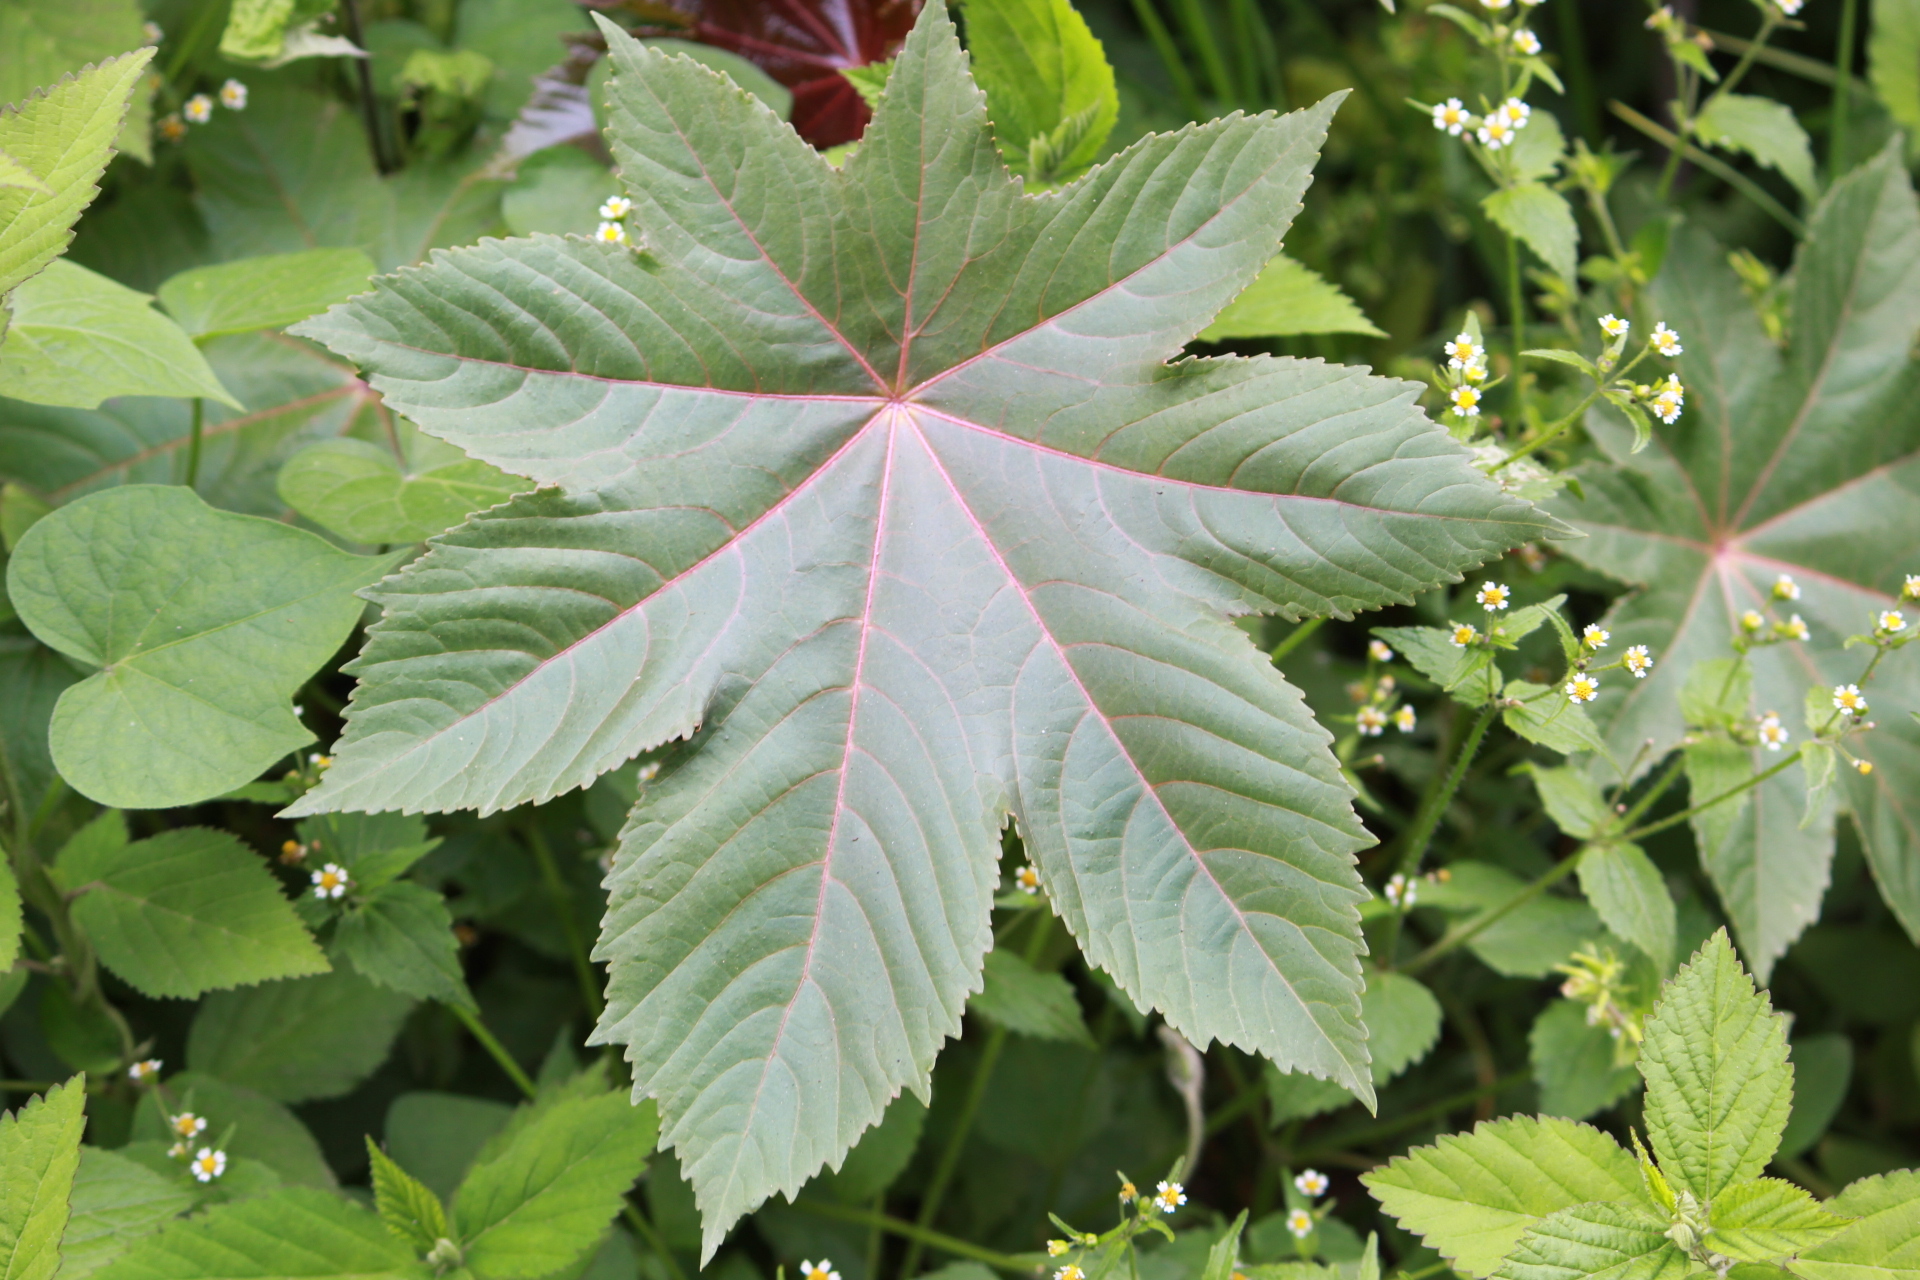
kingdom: Plantae
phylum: Tracheophyta
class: Magnoliopsida
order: Malpighiales
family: Euphorbiaceae
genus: Ricinus
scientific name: Ricinus communis
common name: Castor-oil-plant
